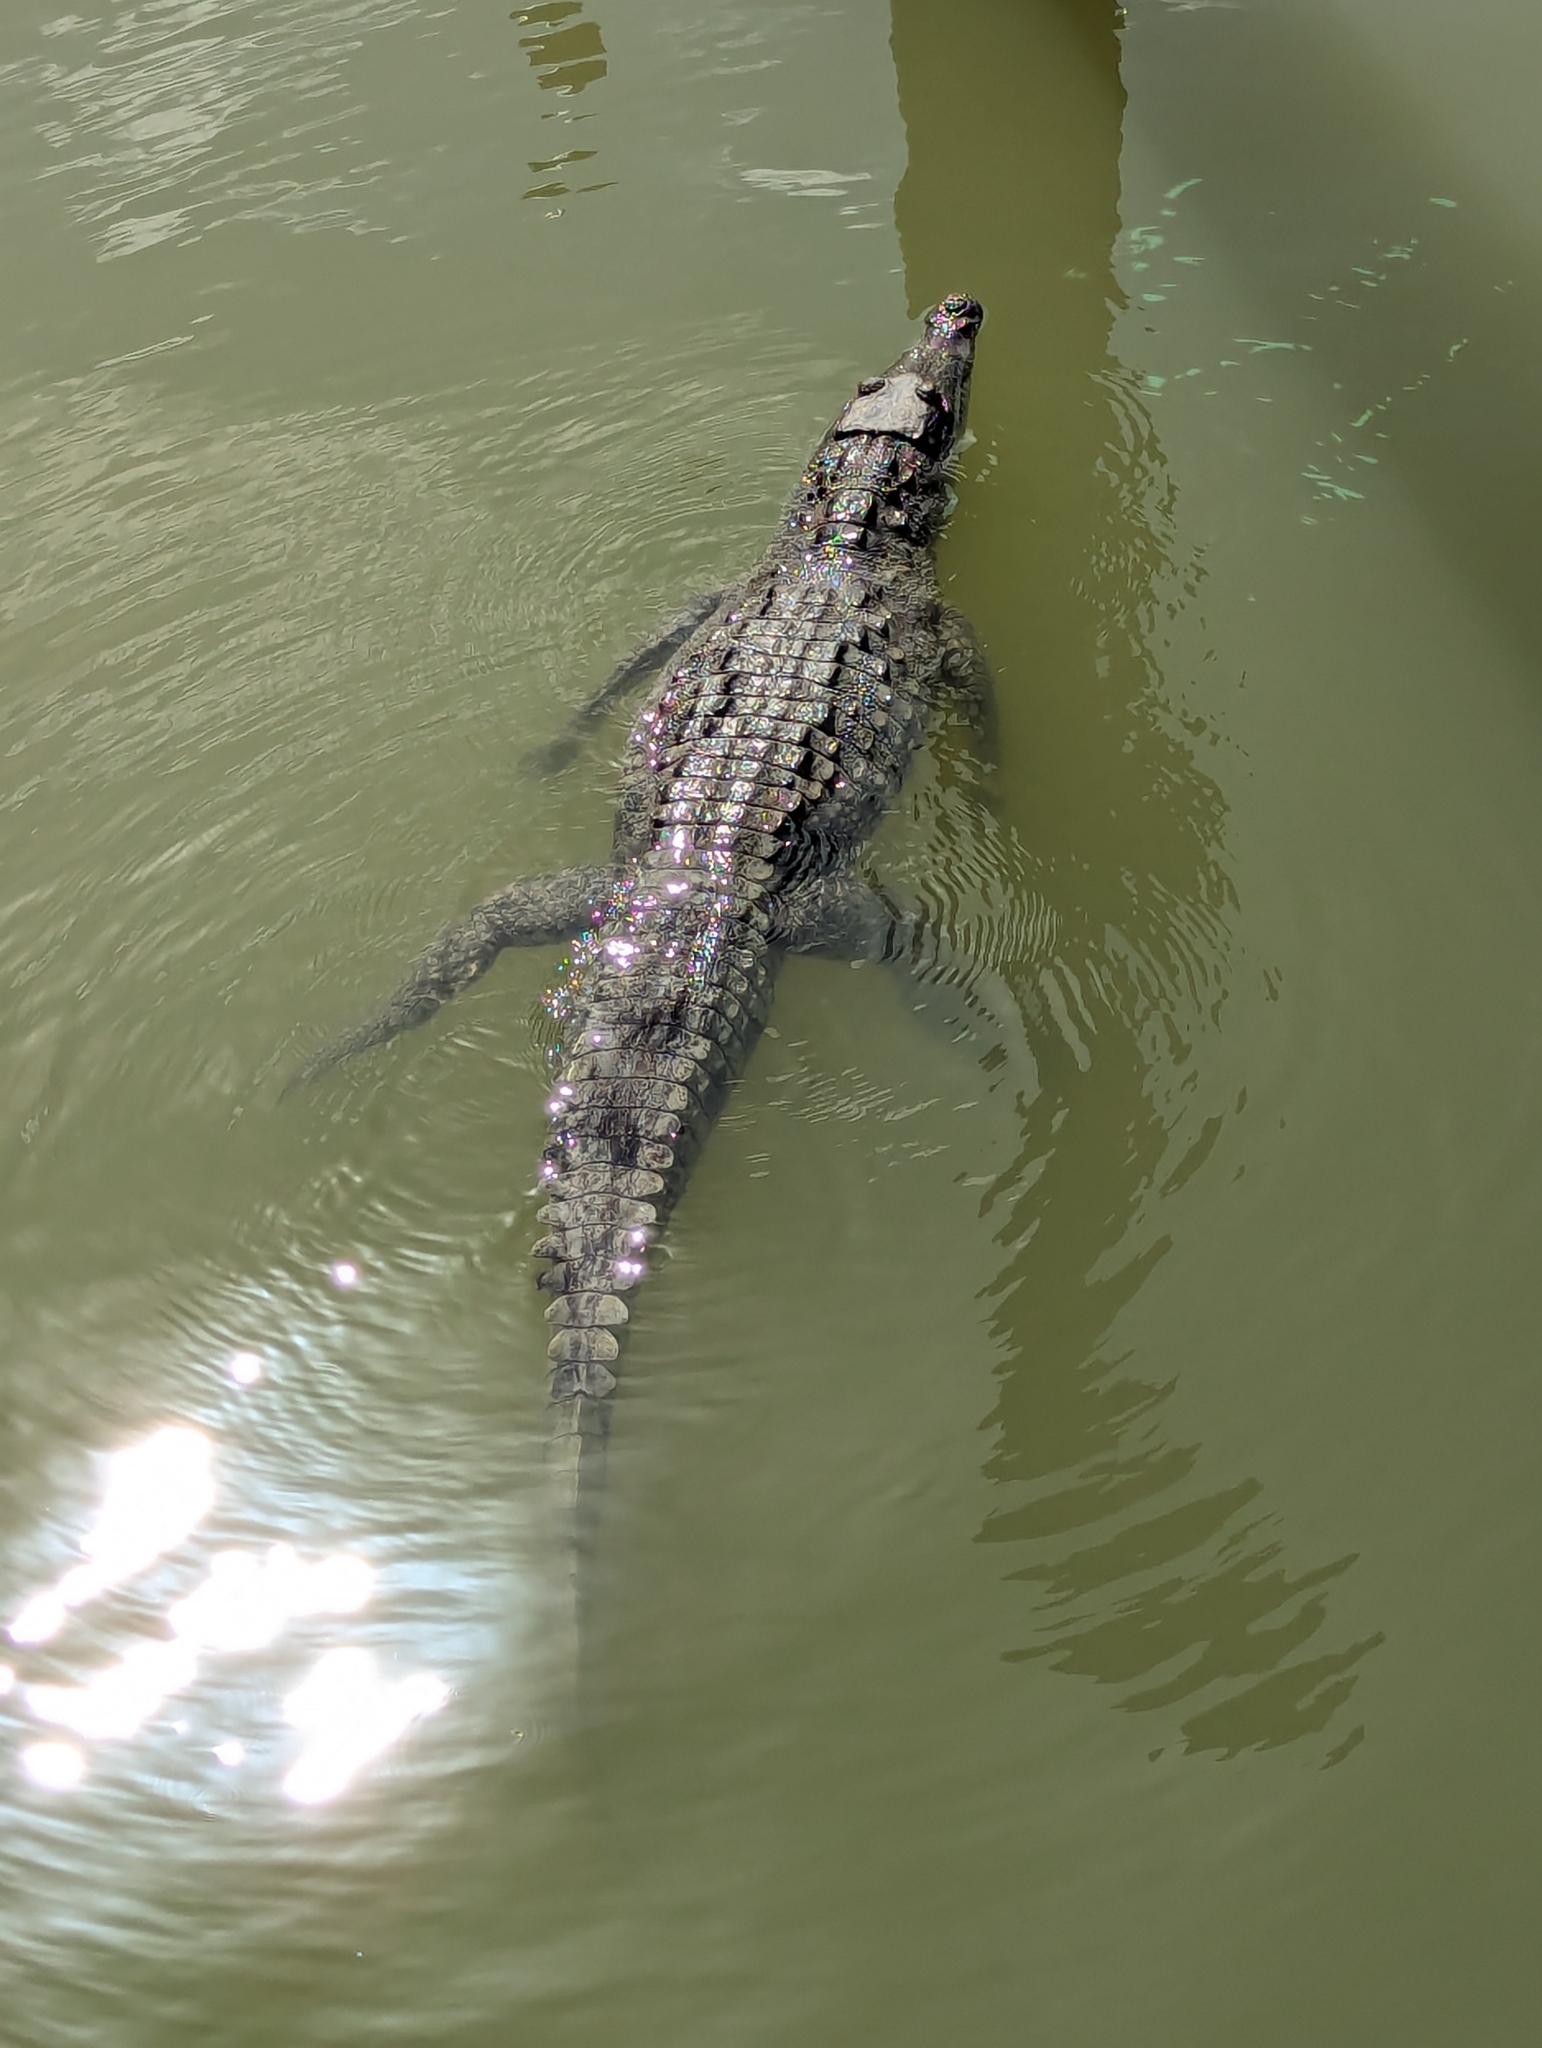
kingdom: Animalia
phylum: Chordata
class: Crocodylia
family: Crocodylidae
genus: Crocodylus
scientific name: Crocodylus acutus
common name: American crocodile
